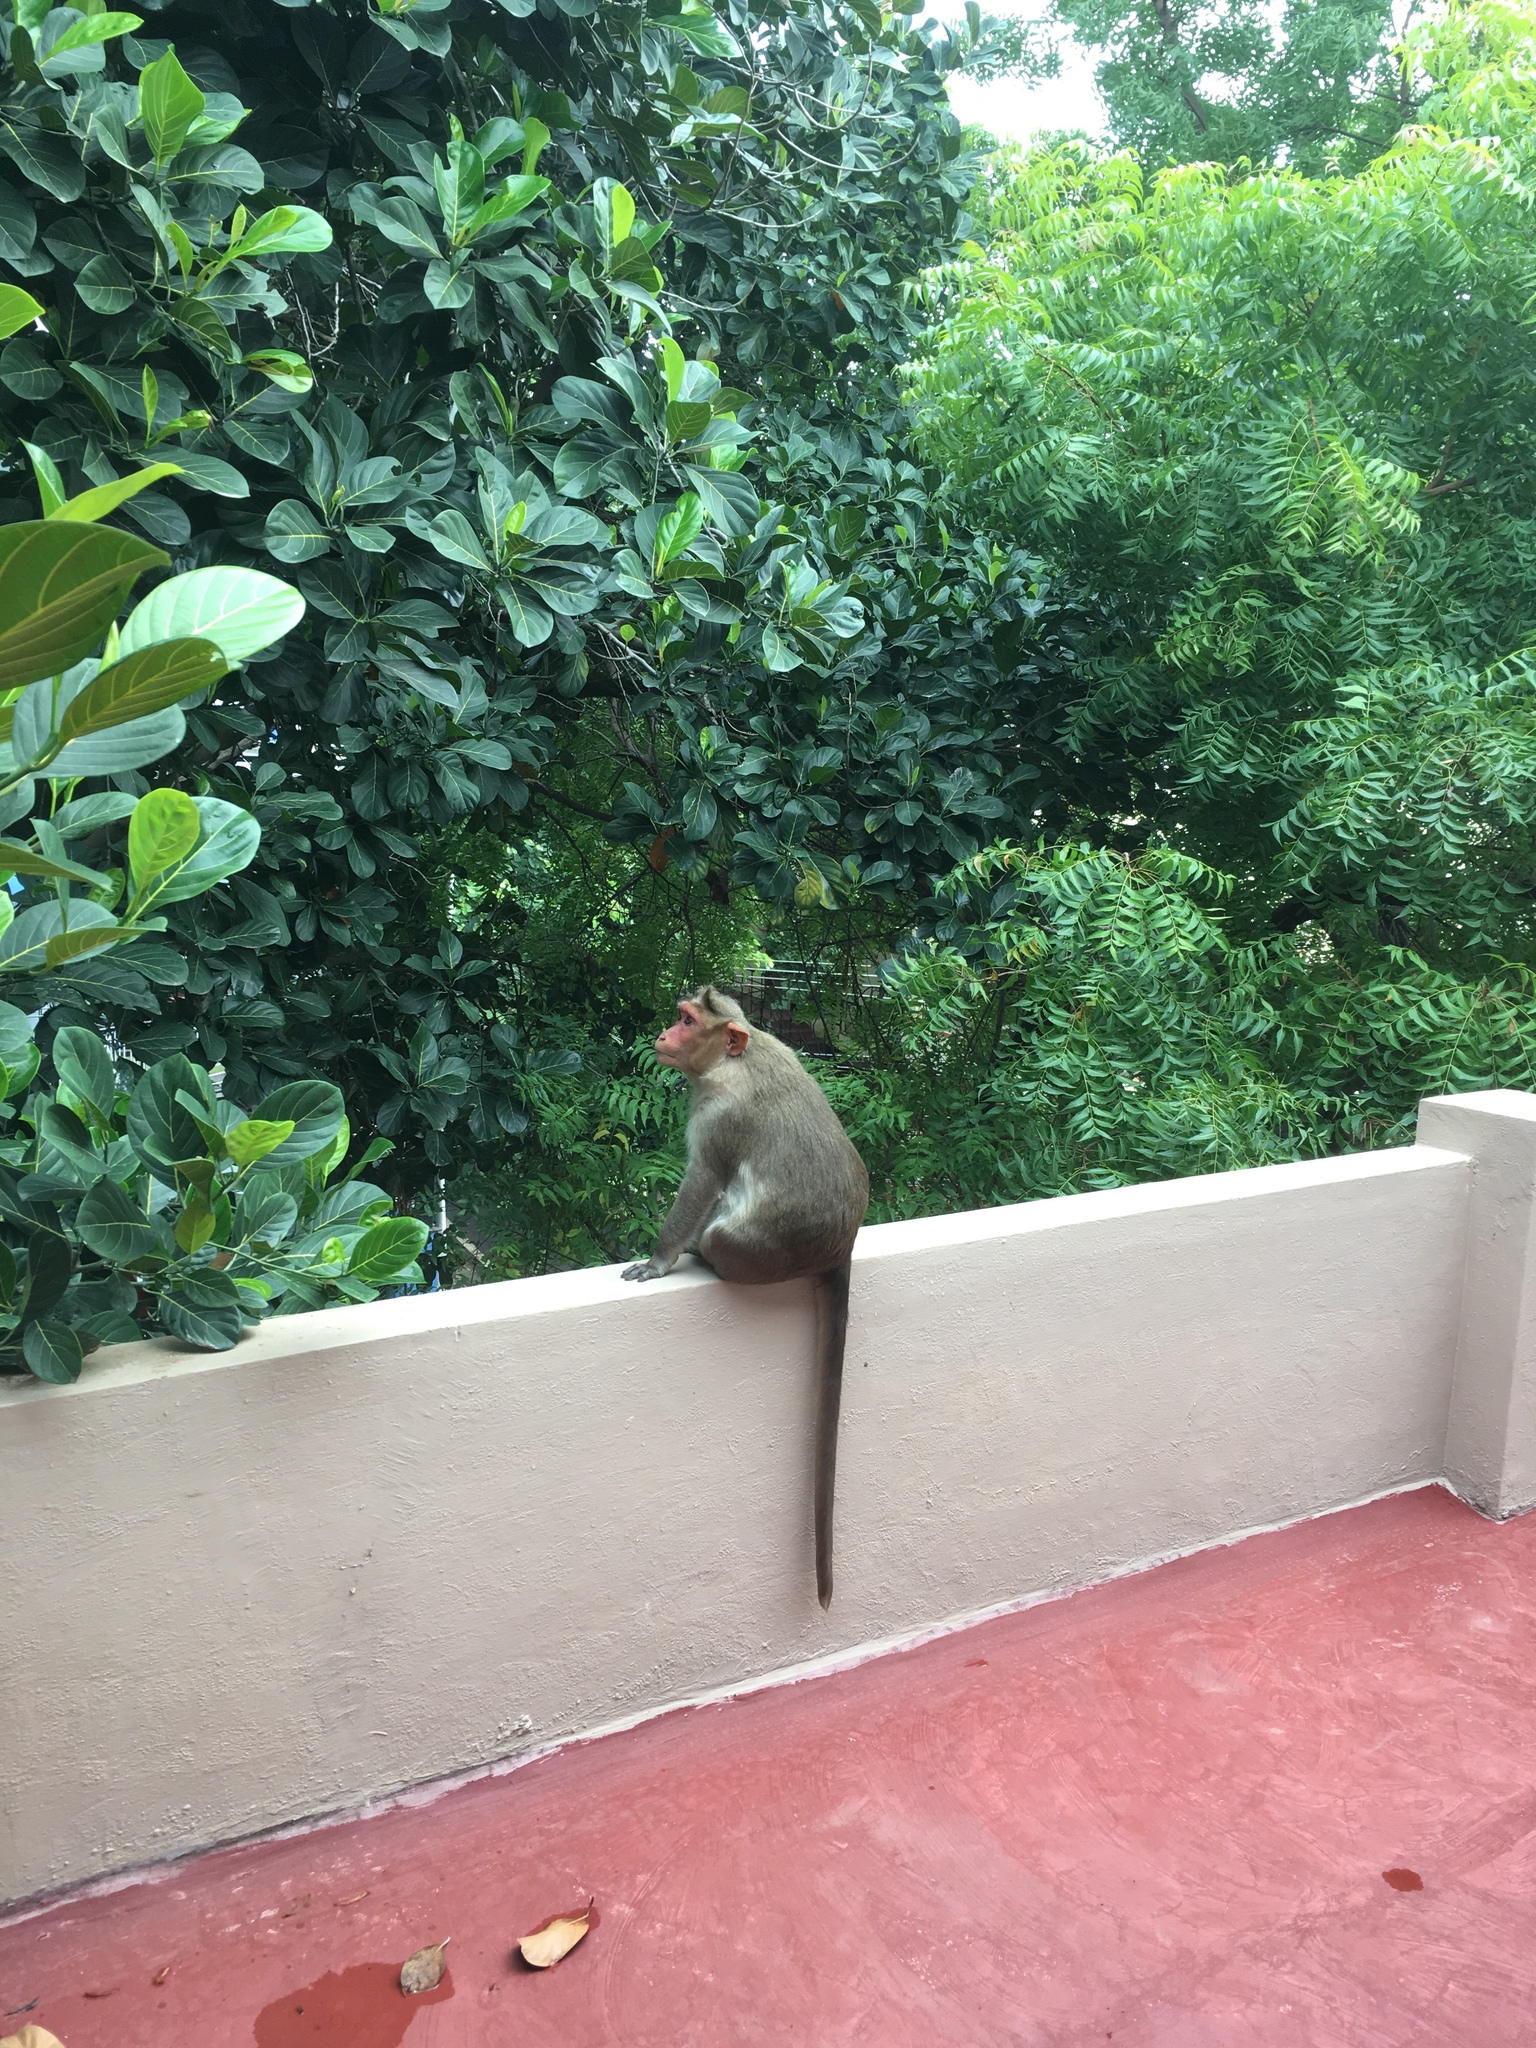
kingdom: Animalia
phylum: Chordata
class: Mammalia
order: Primates
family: Cercopithecidae
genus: Macaca
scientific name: Macaca radiata
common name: Bonnet macaque
